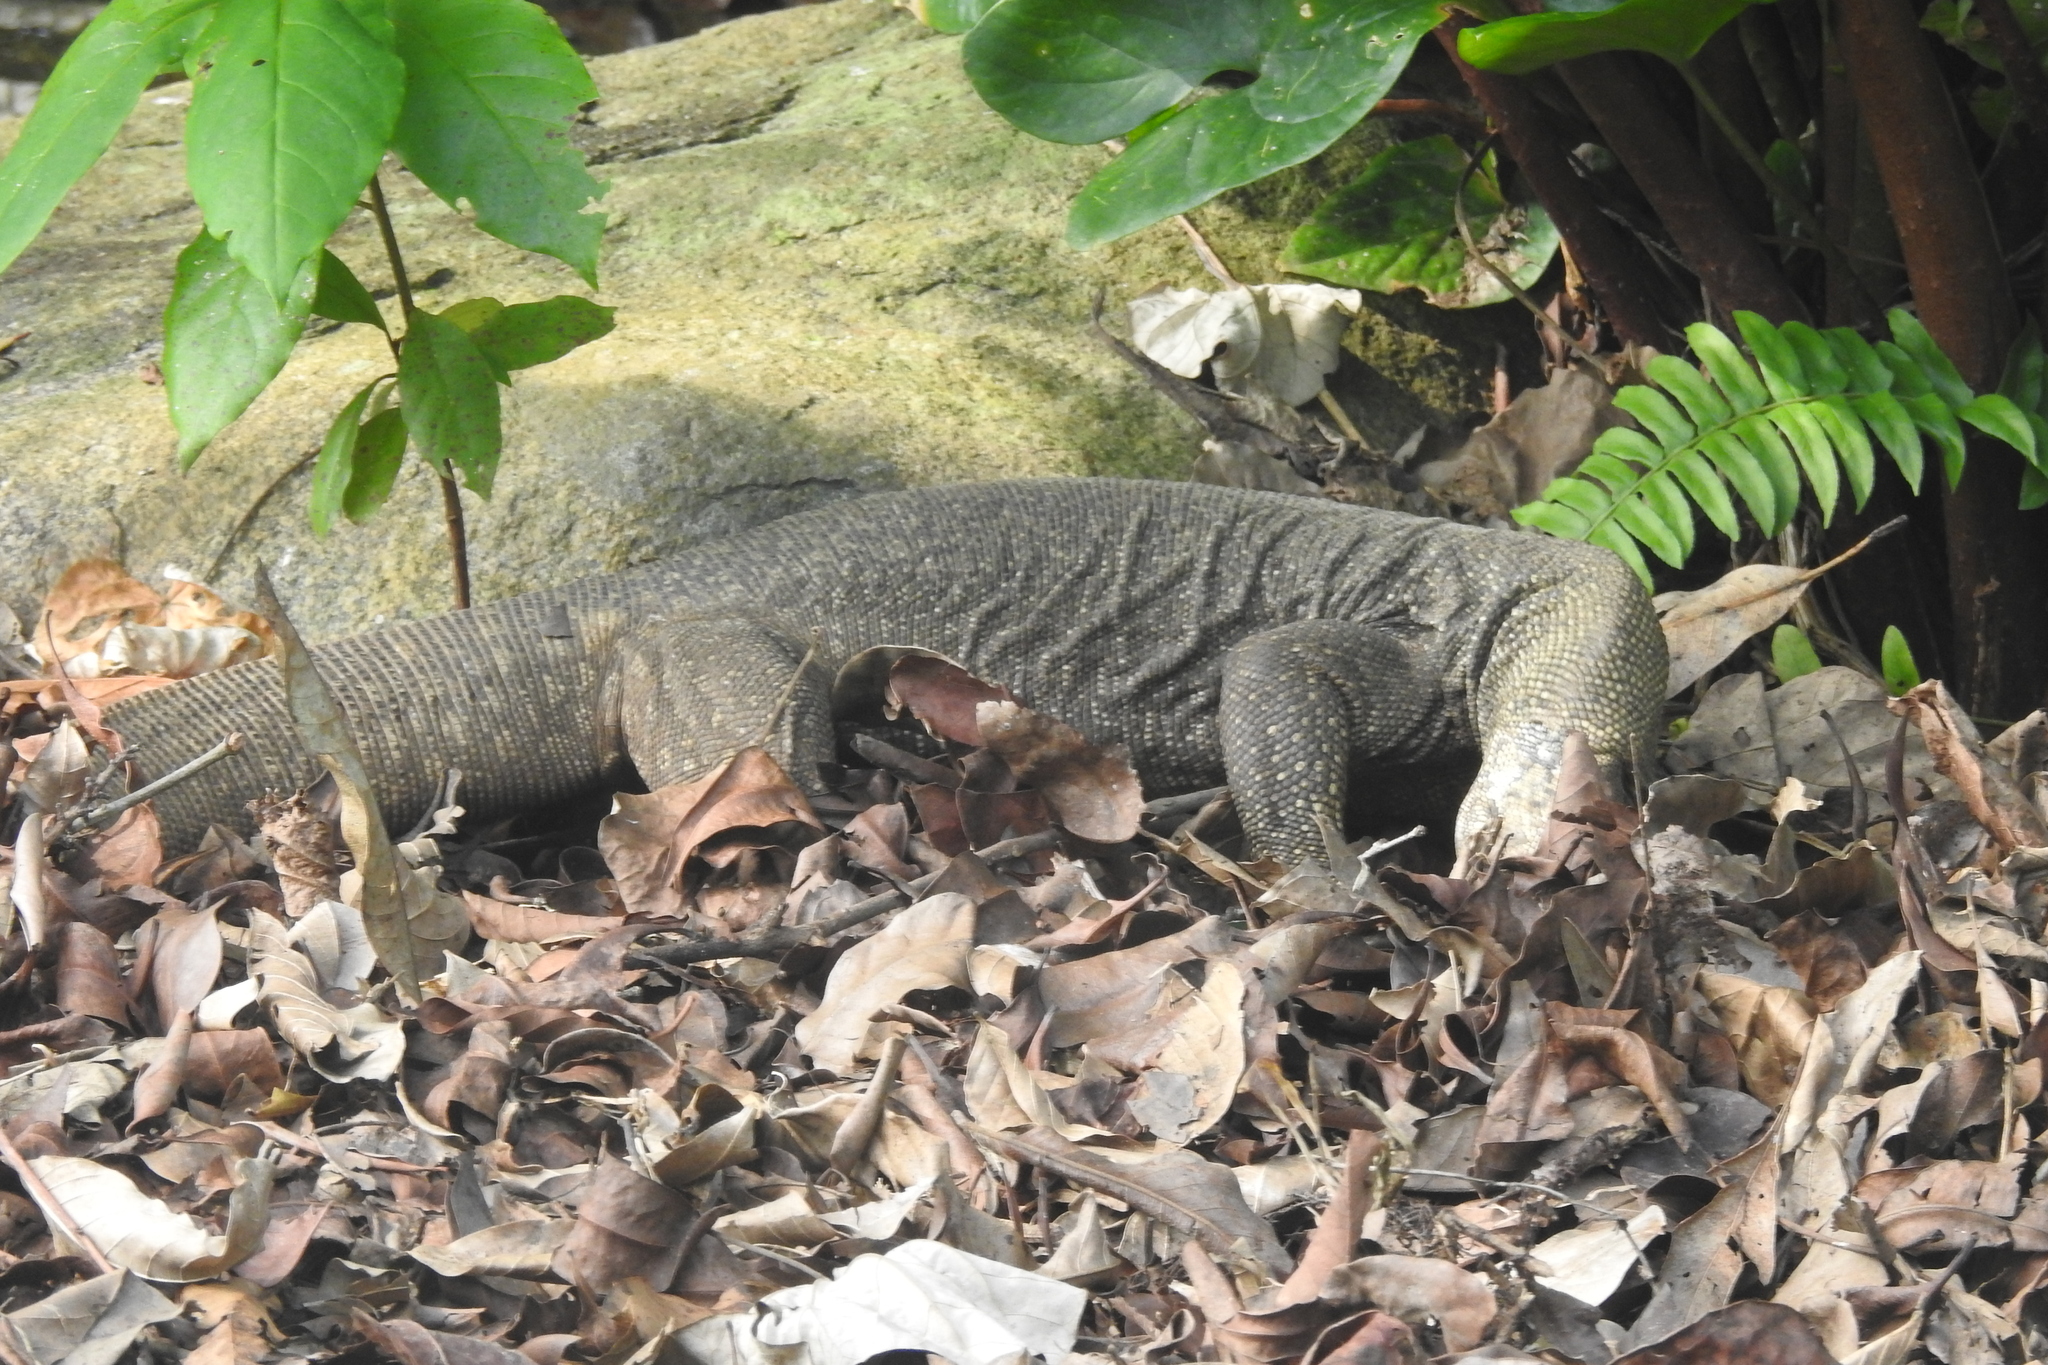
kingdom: Animalia
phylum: Chordata
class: Squamata
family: Varanidae
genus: Varanus
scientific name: Varanus nebulosus
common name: Clouded monitor
